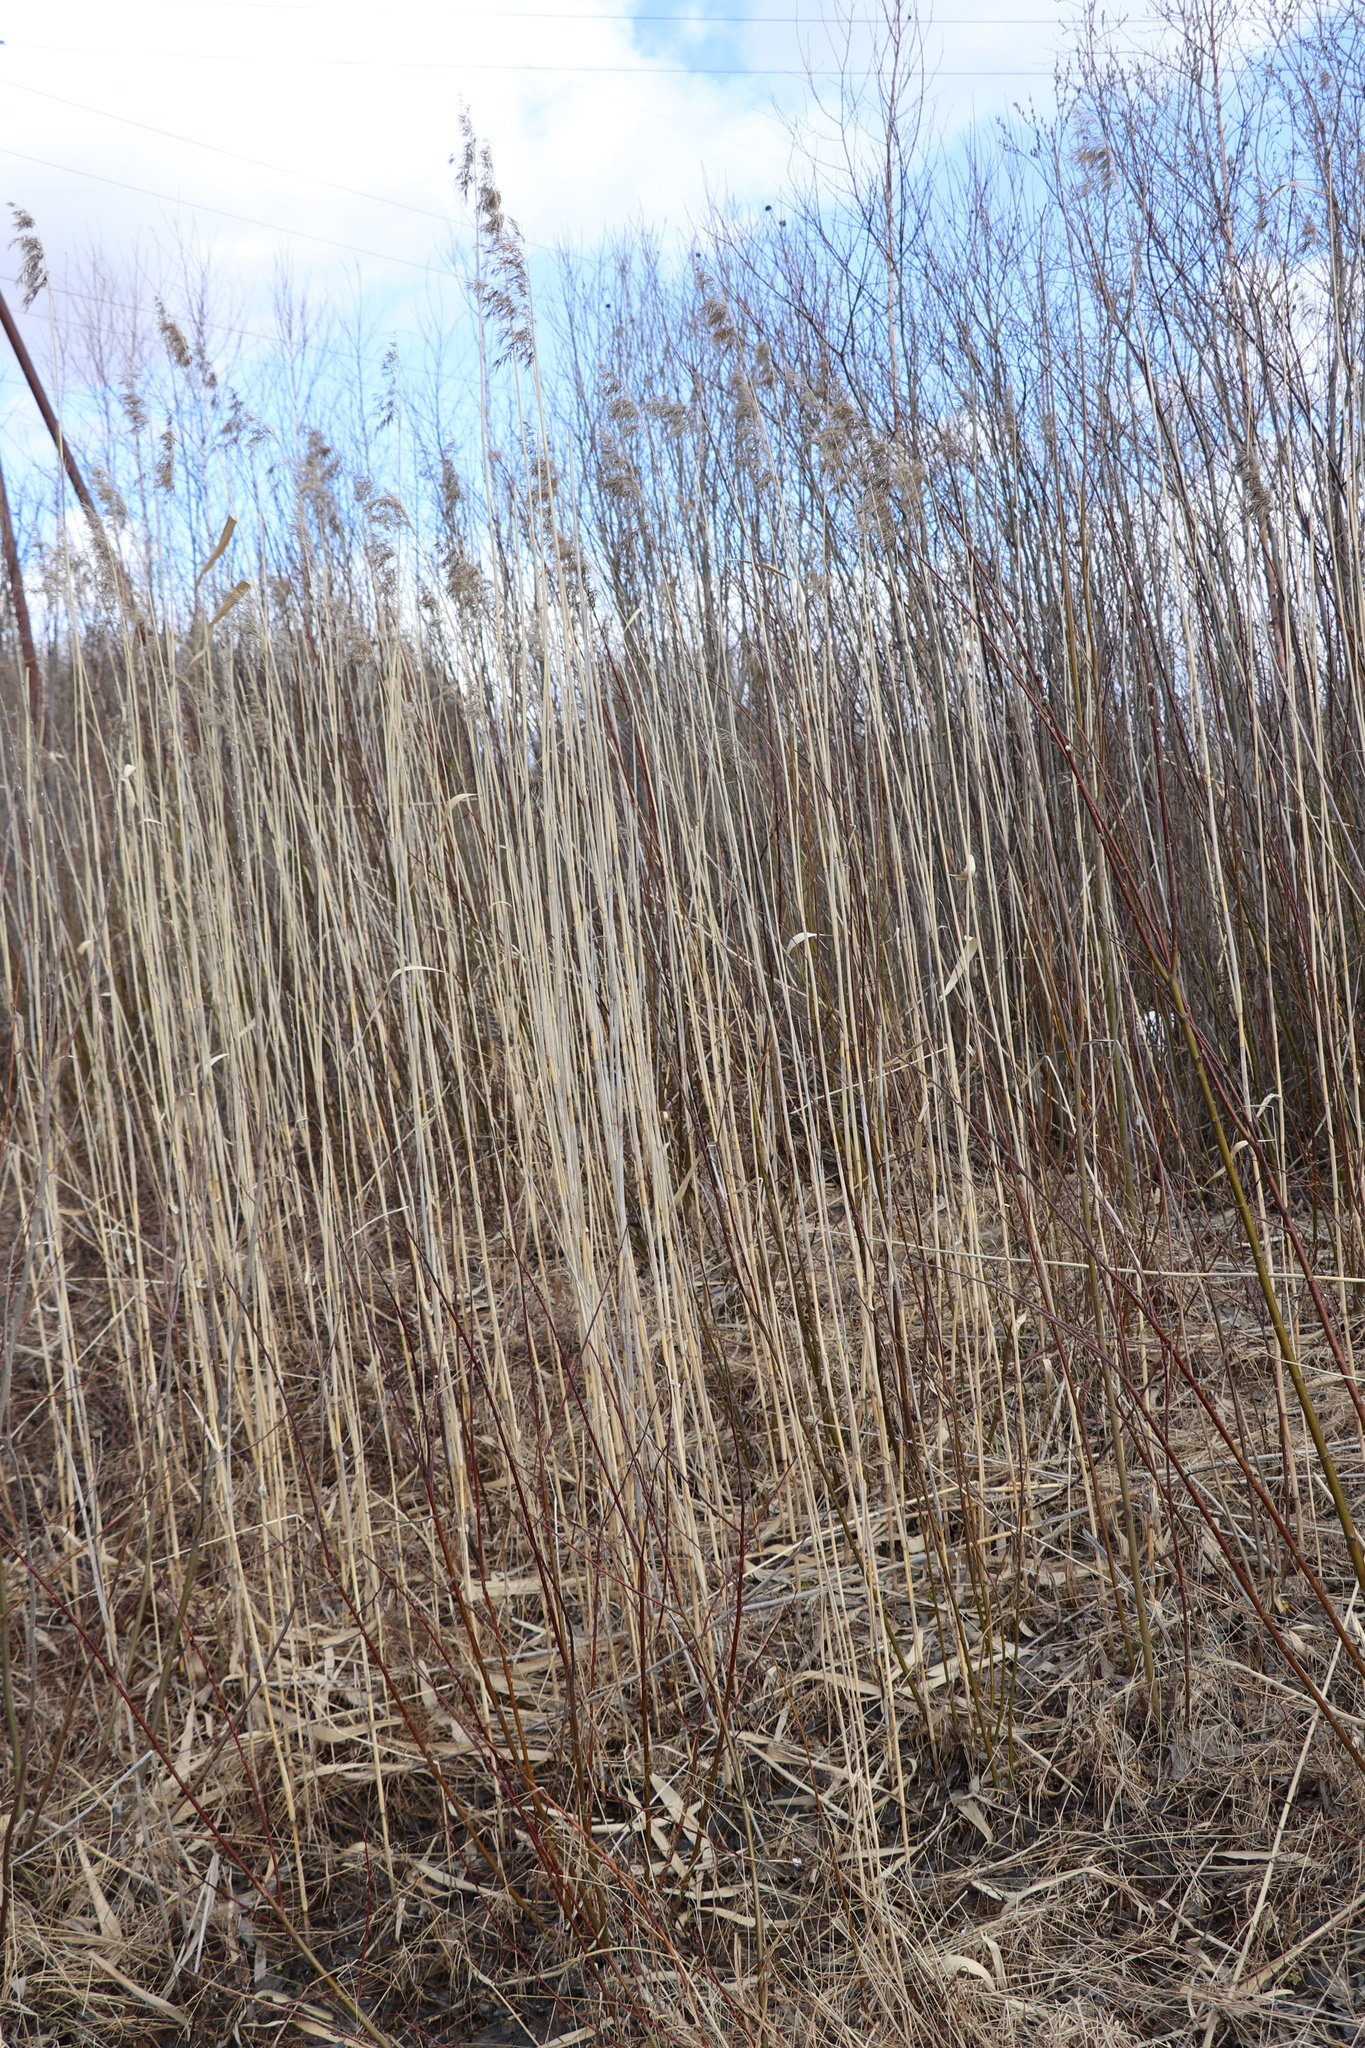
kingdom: Plantae
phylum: Tracheophyta
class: Liliopsida
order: Poales
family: Poaceae
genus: Phragmites
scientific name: Phragmites australis
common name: Common reed
